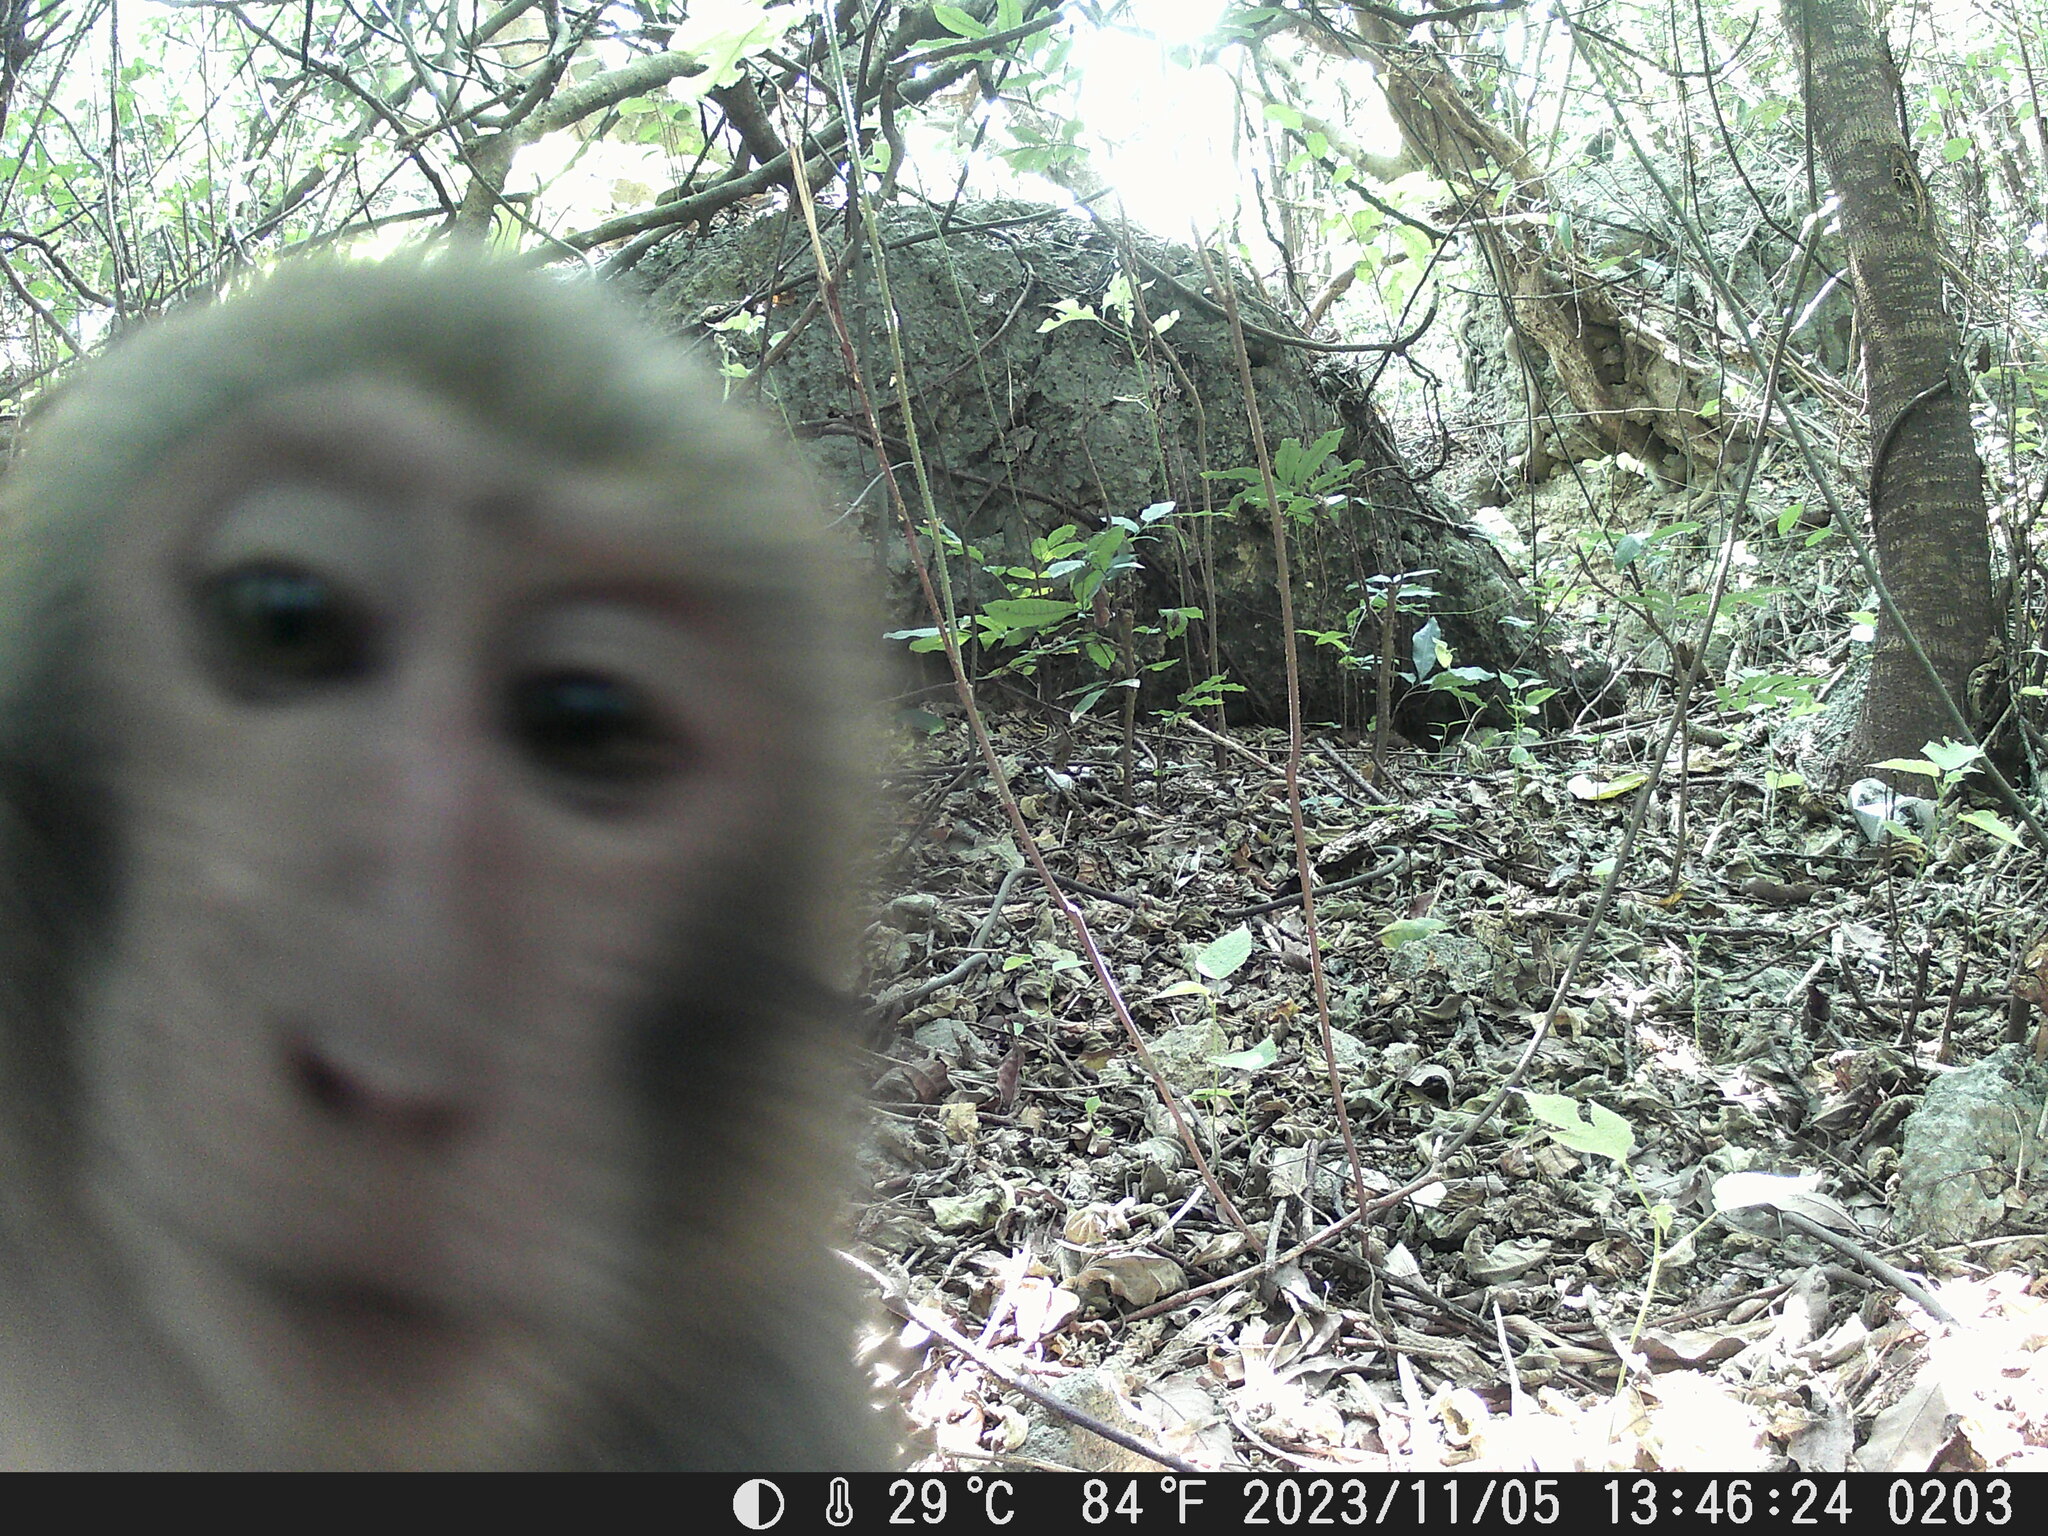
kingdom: Animalia
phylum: Chordata
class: Mammalia
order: Primates
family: Cercopithecidae
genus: Macaca
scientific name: Macaca cyclopis
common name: Formosan rock macaque
